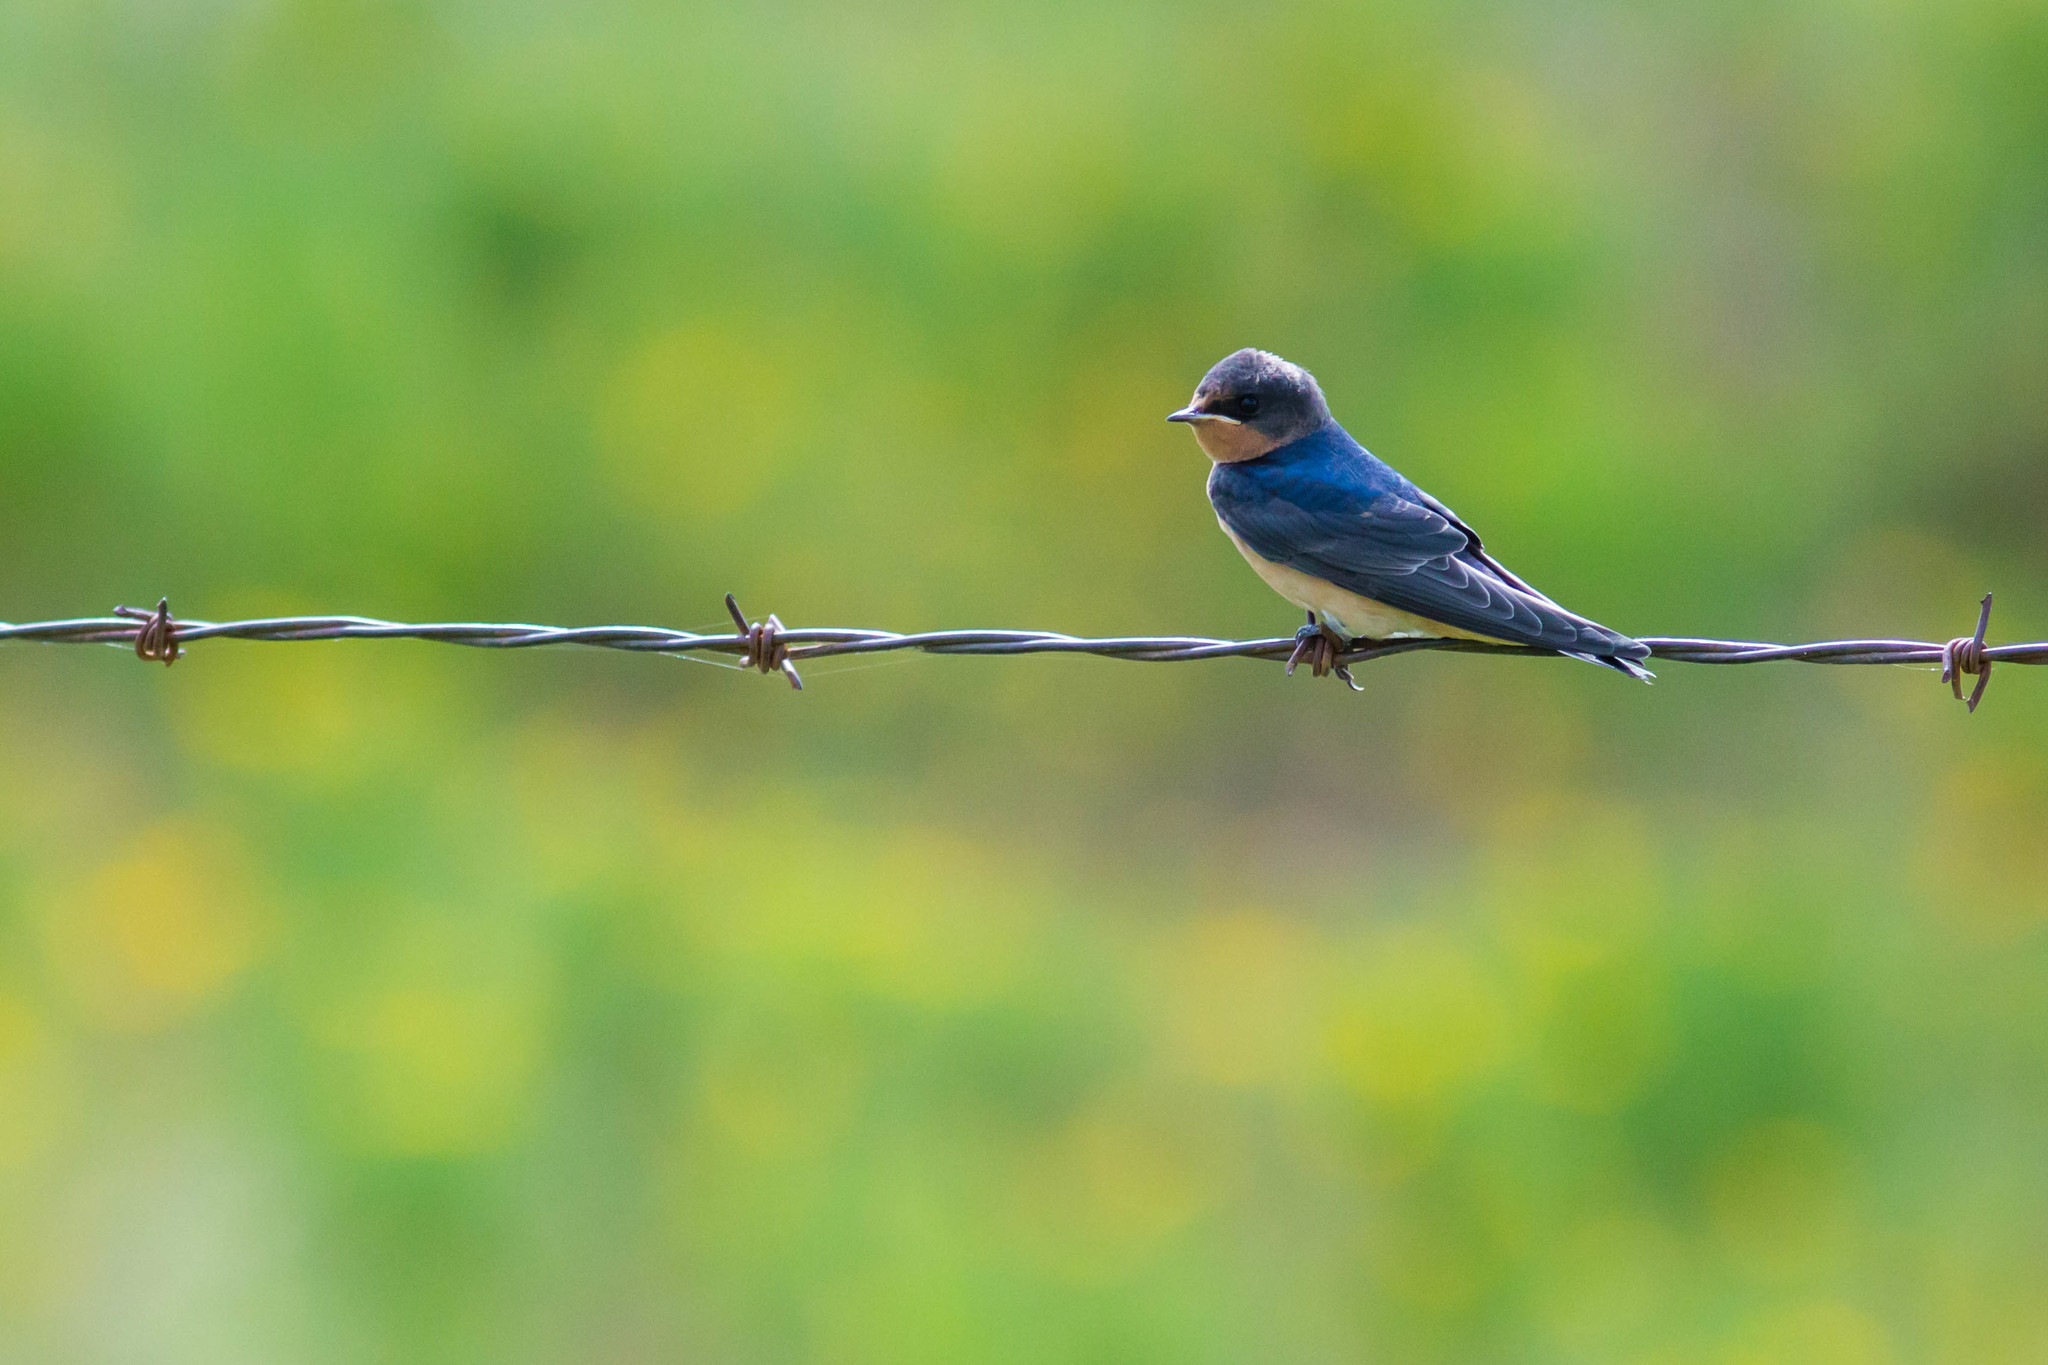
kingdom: Animalia
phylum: Chordata
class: Aves
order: Passeriformes
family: Hirundinidae
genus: Hirundo
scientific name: Hirundo rustica
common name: Barn swallow
